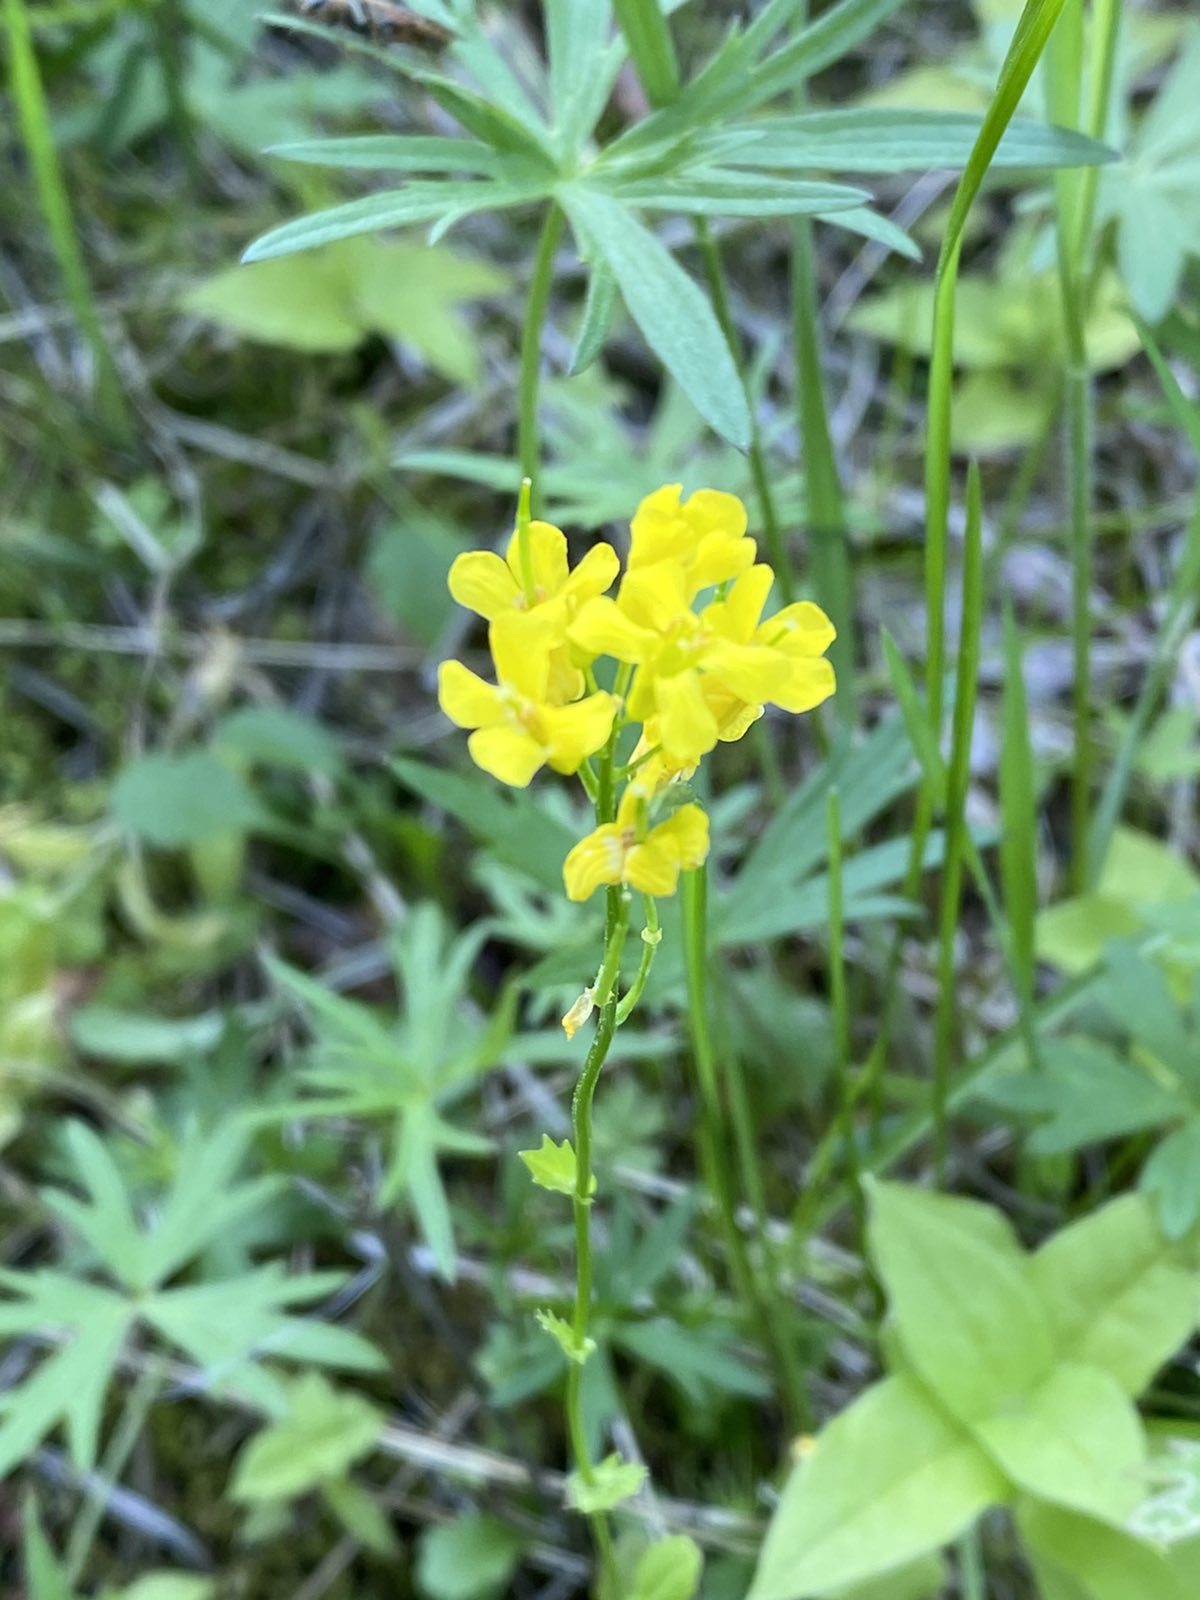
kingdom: Plantae
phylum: Tracheophyta
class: Magnoliopsida
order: Brassicales
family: Brassicaceae
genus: Barbarea
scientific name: Barbarea vulgaris
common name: Cressy-greens
